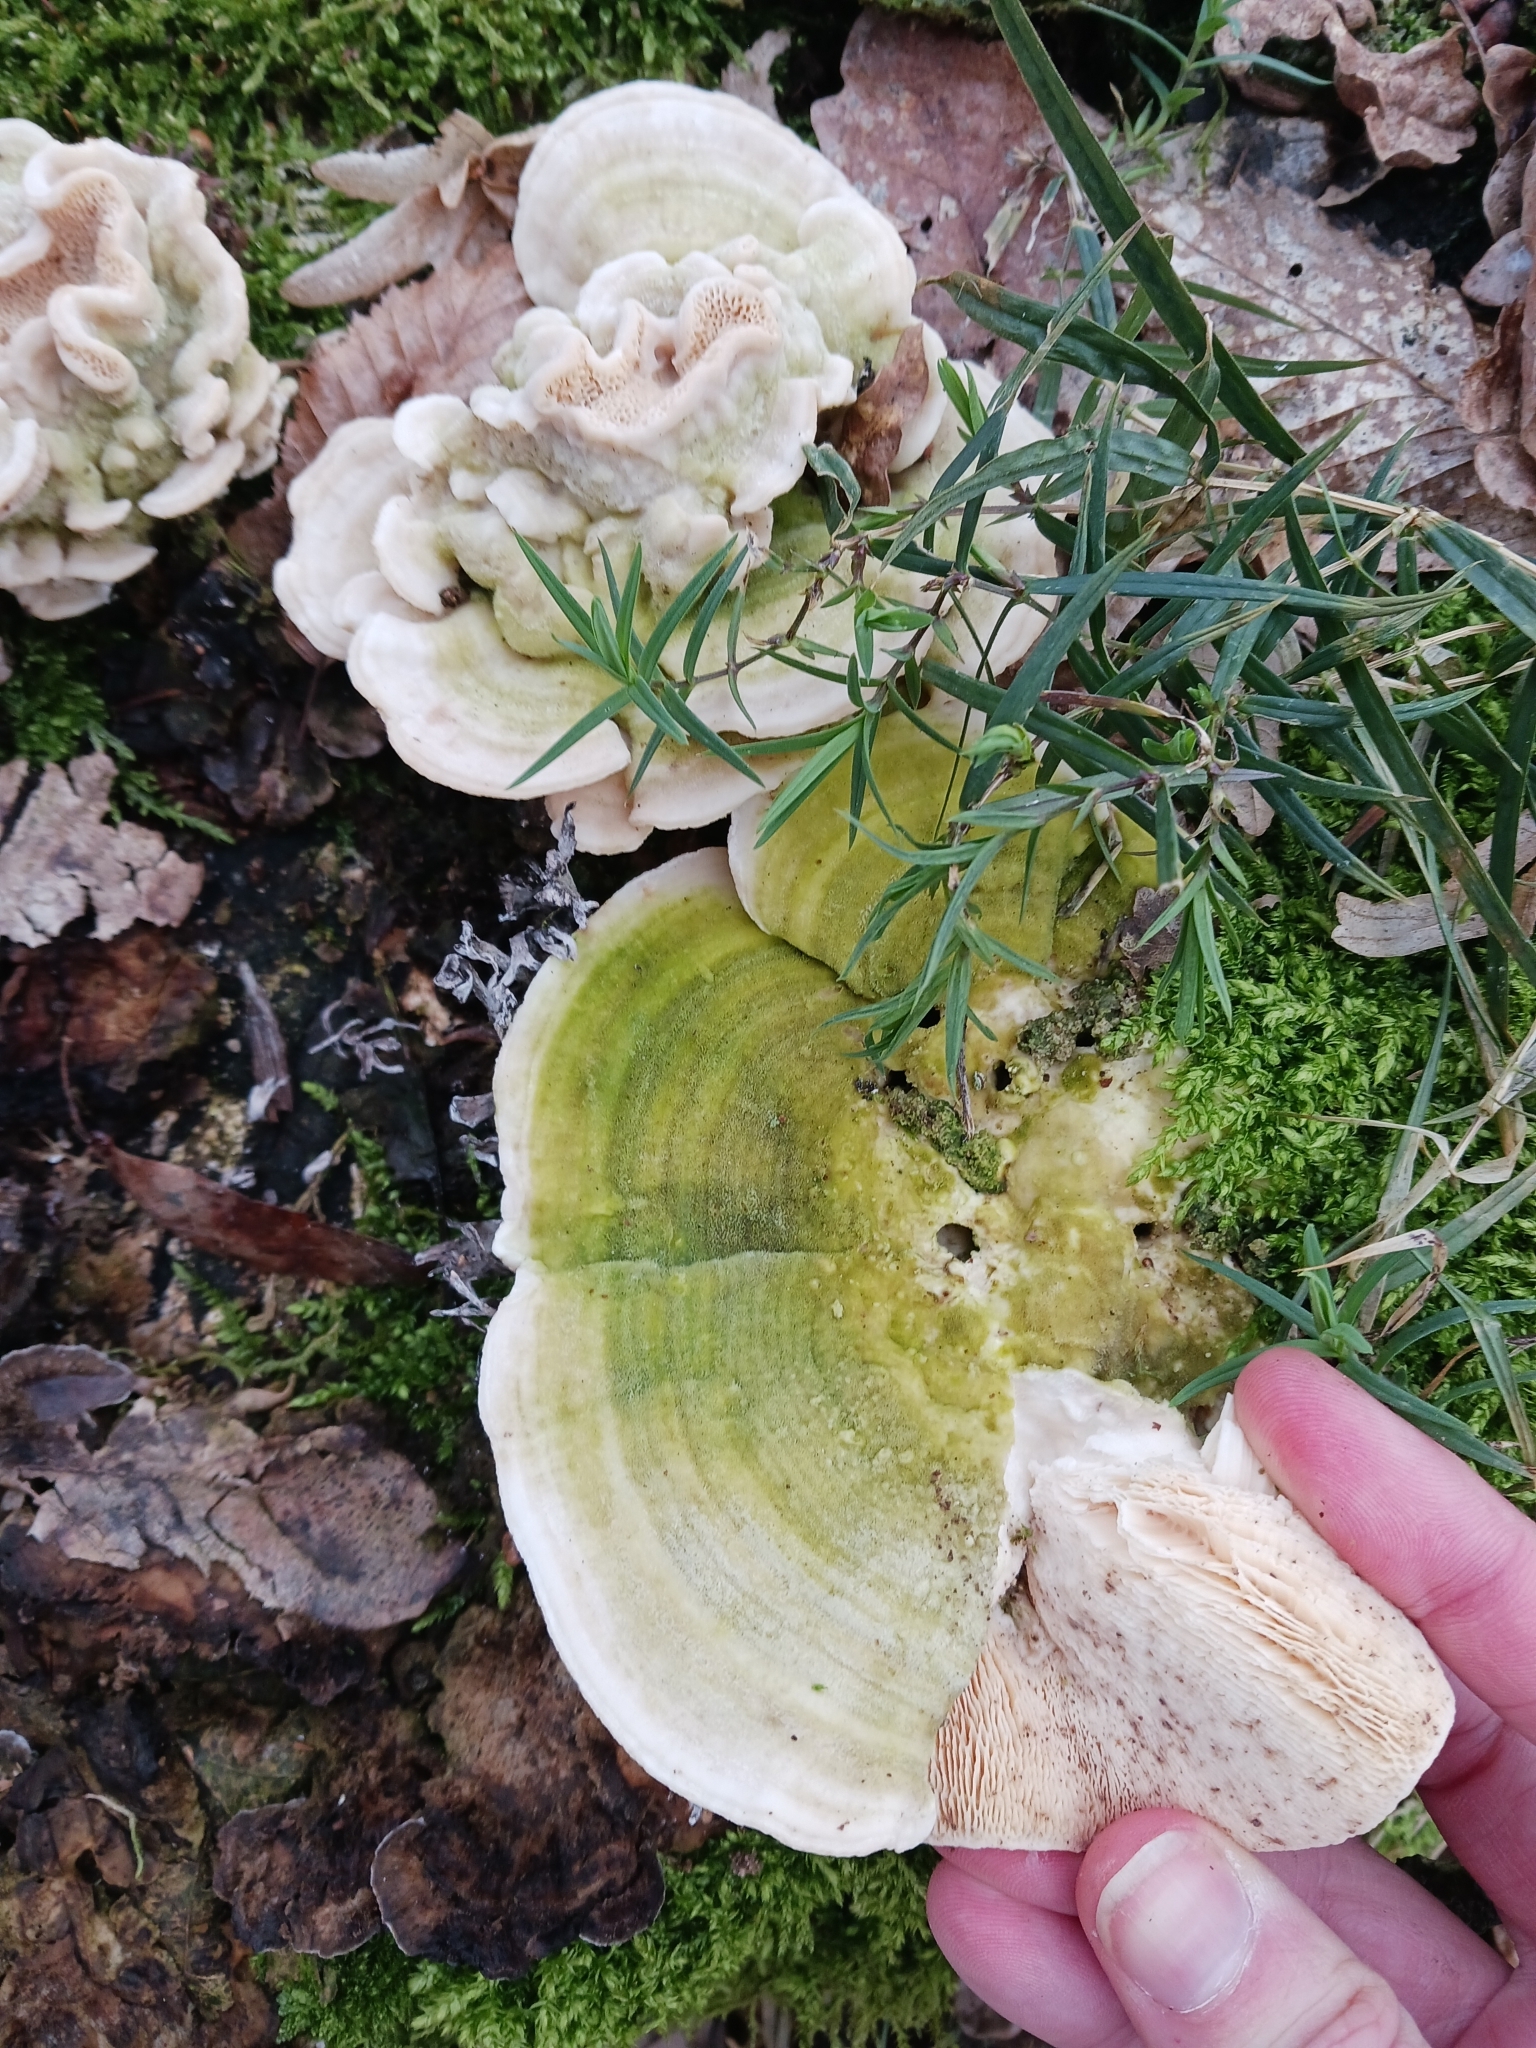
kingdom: Fungi
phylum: Basidiomycota
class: Agaricomycetes
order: Polyporales
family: Polyporaceae
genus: Trametes
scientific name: Trametes gibbosa
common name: Lumpy bracket
